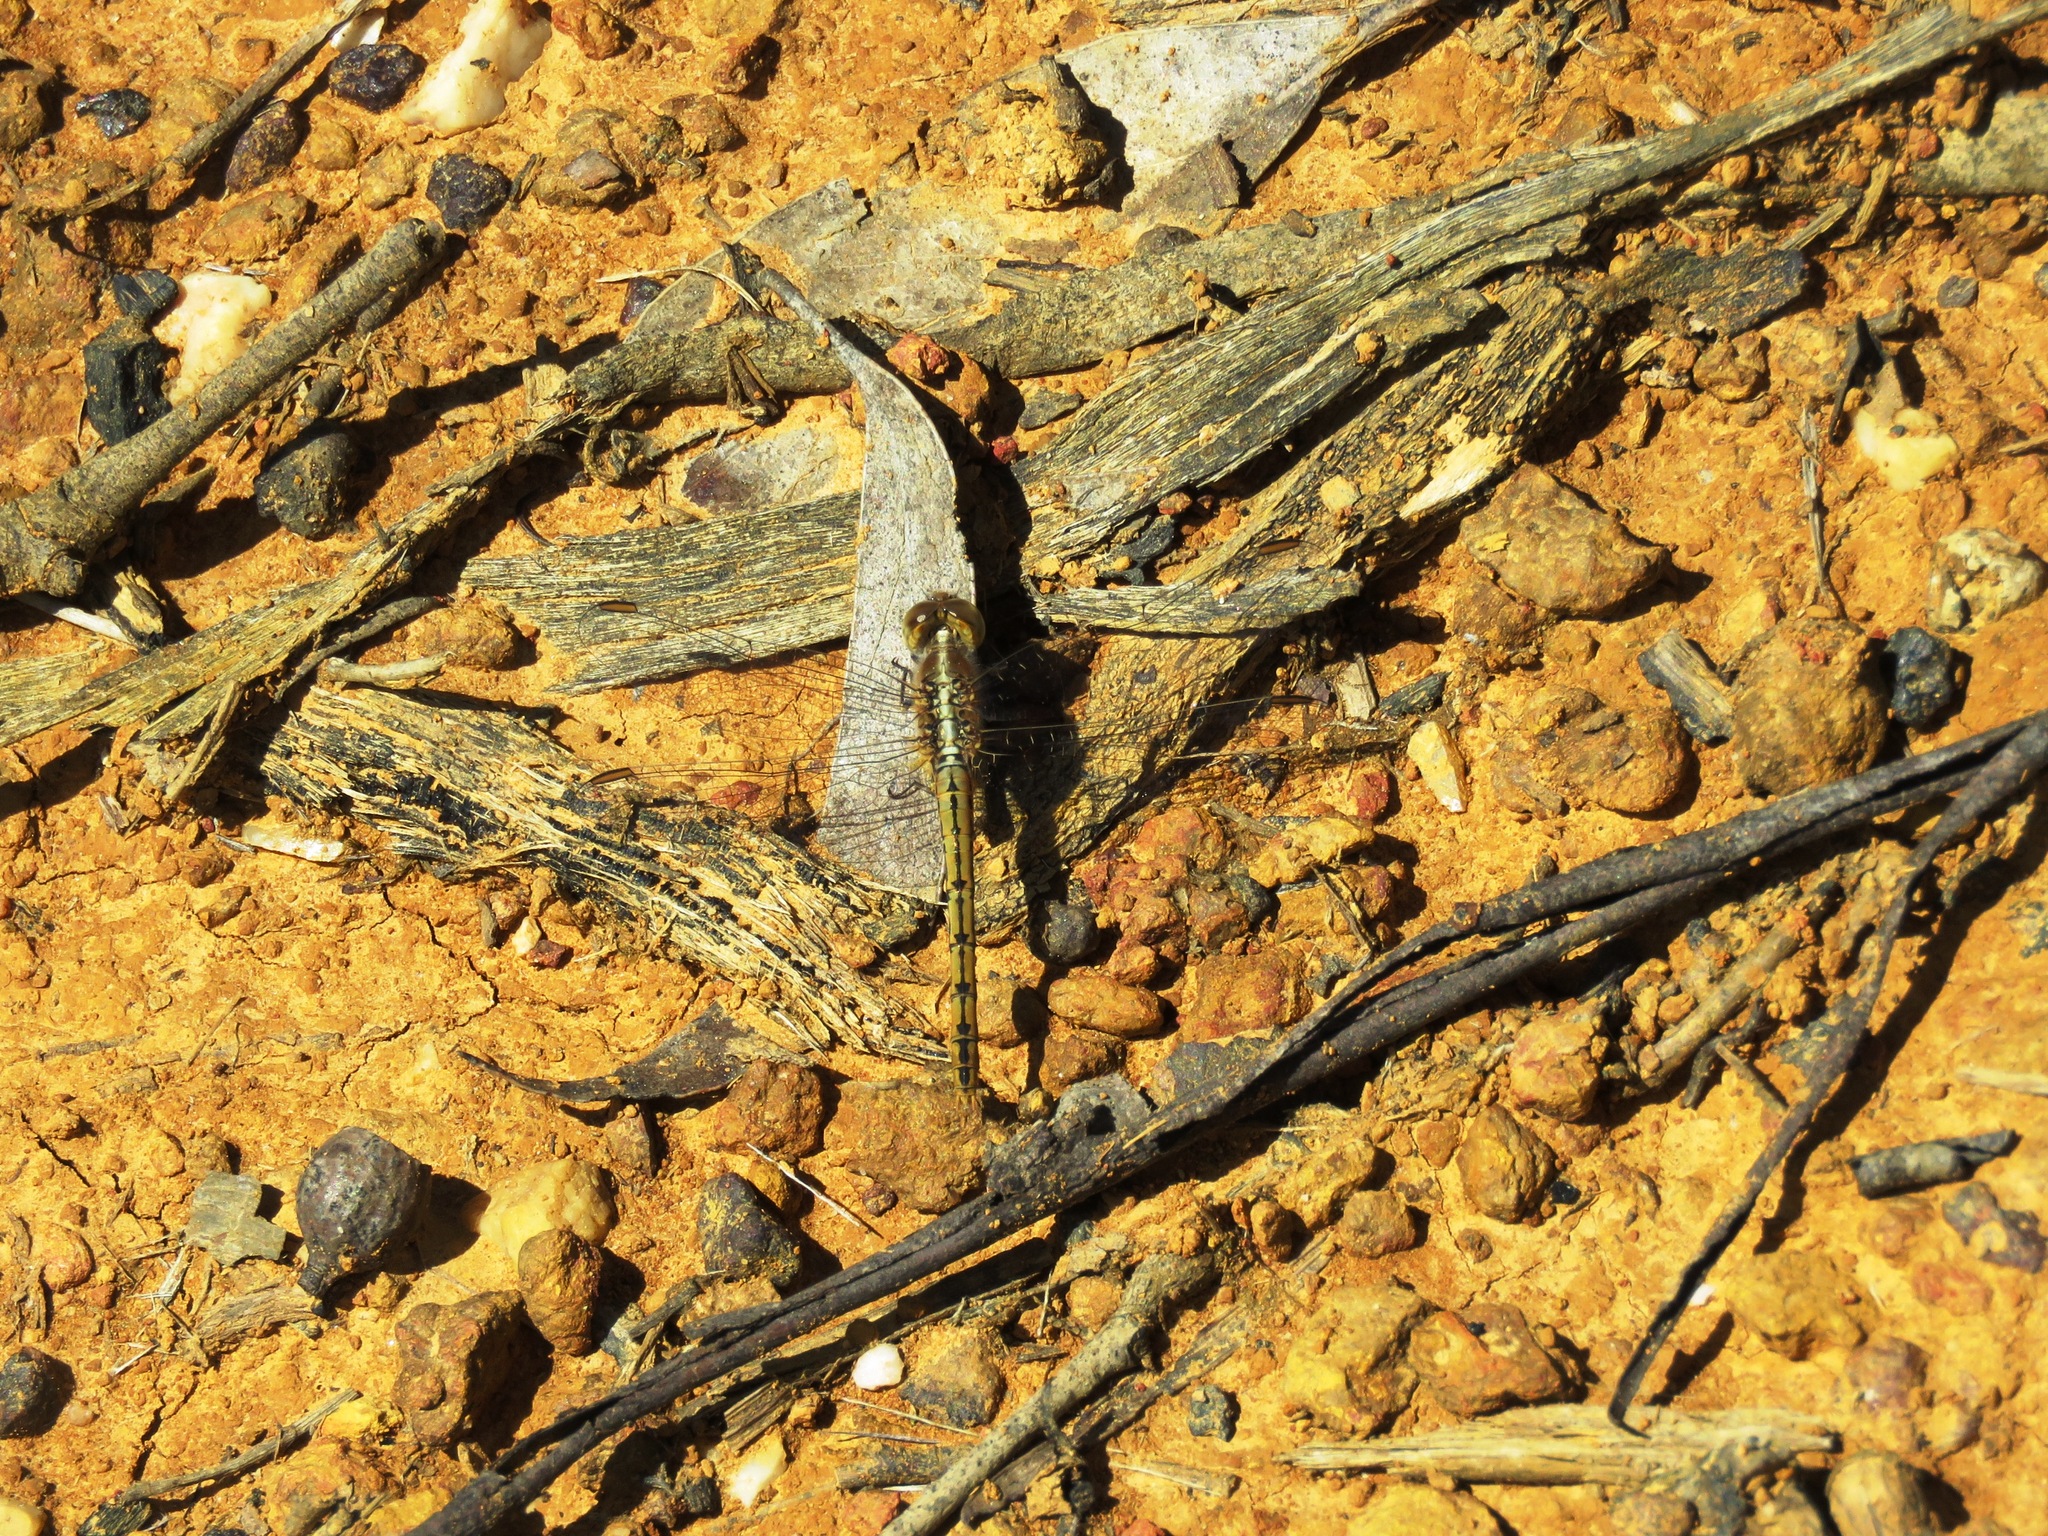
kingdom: Animalia
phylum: Arthropoda
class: Insecta
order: Odonata
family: Libellulidae
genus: Diplacodes
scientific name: Diplacodes bipunctata
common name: Red percher dragonfly
